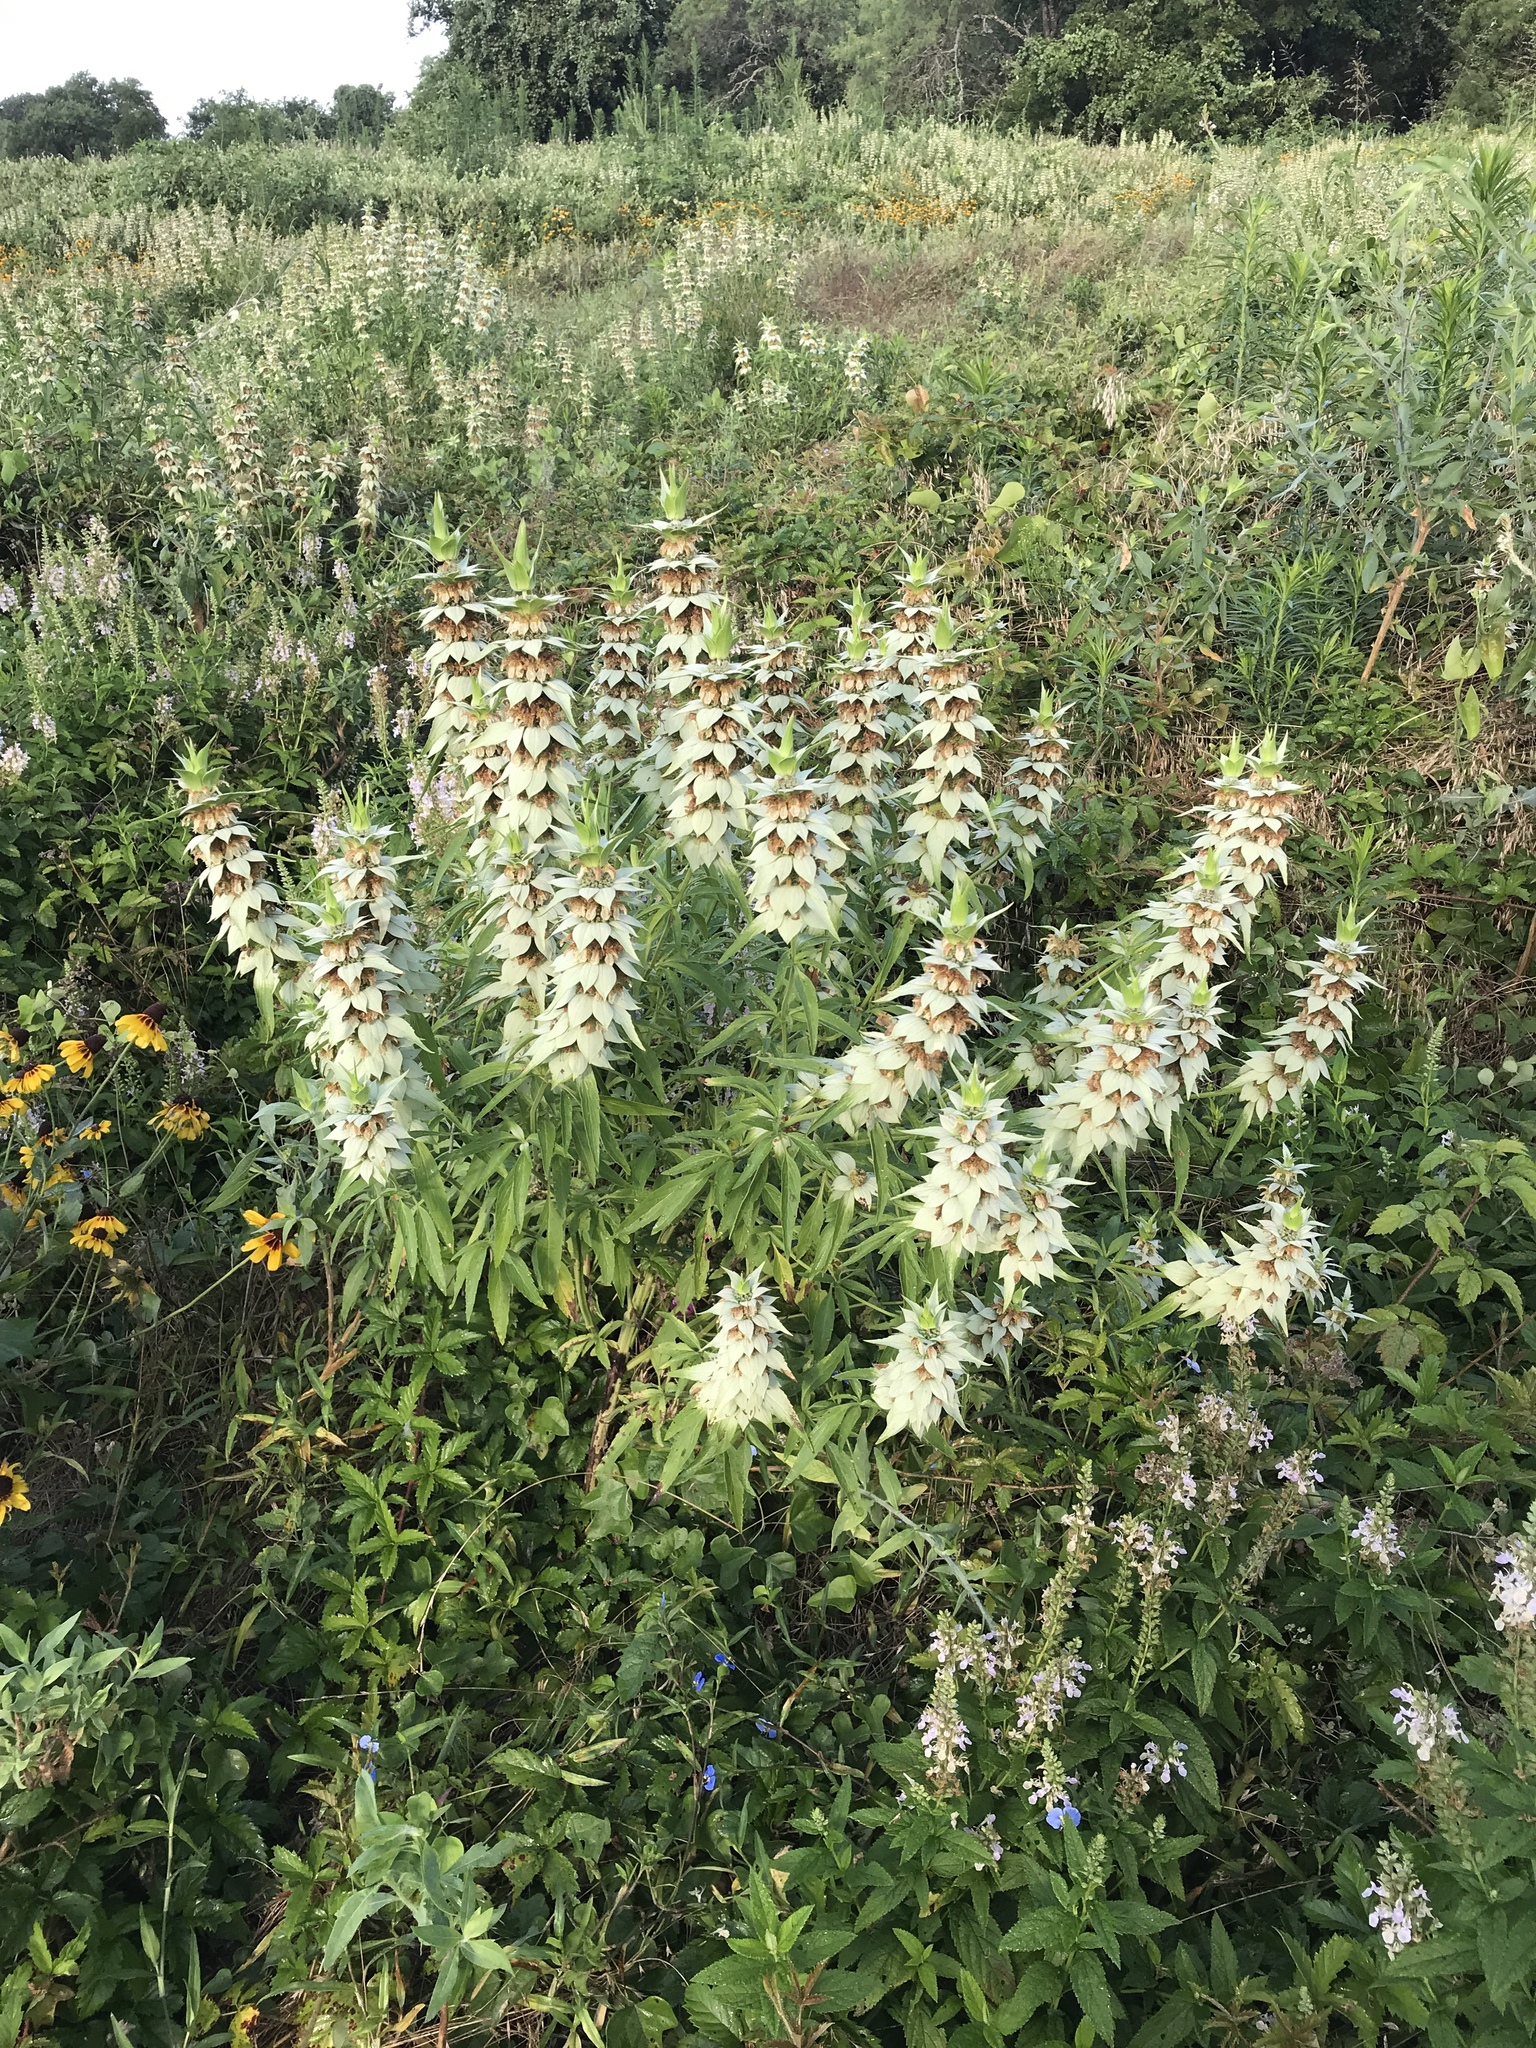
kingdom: Plantae
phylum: Tracheophyta
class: Magnoliopsida
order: Lamiales
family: Lamiaceae
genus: Monarda
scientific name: Monarda punctata
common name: Dotted monarda
